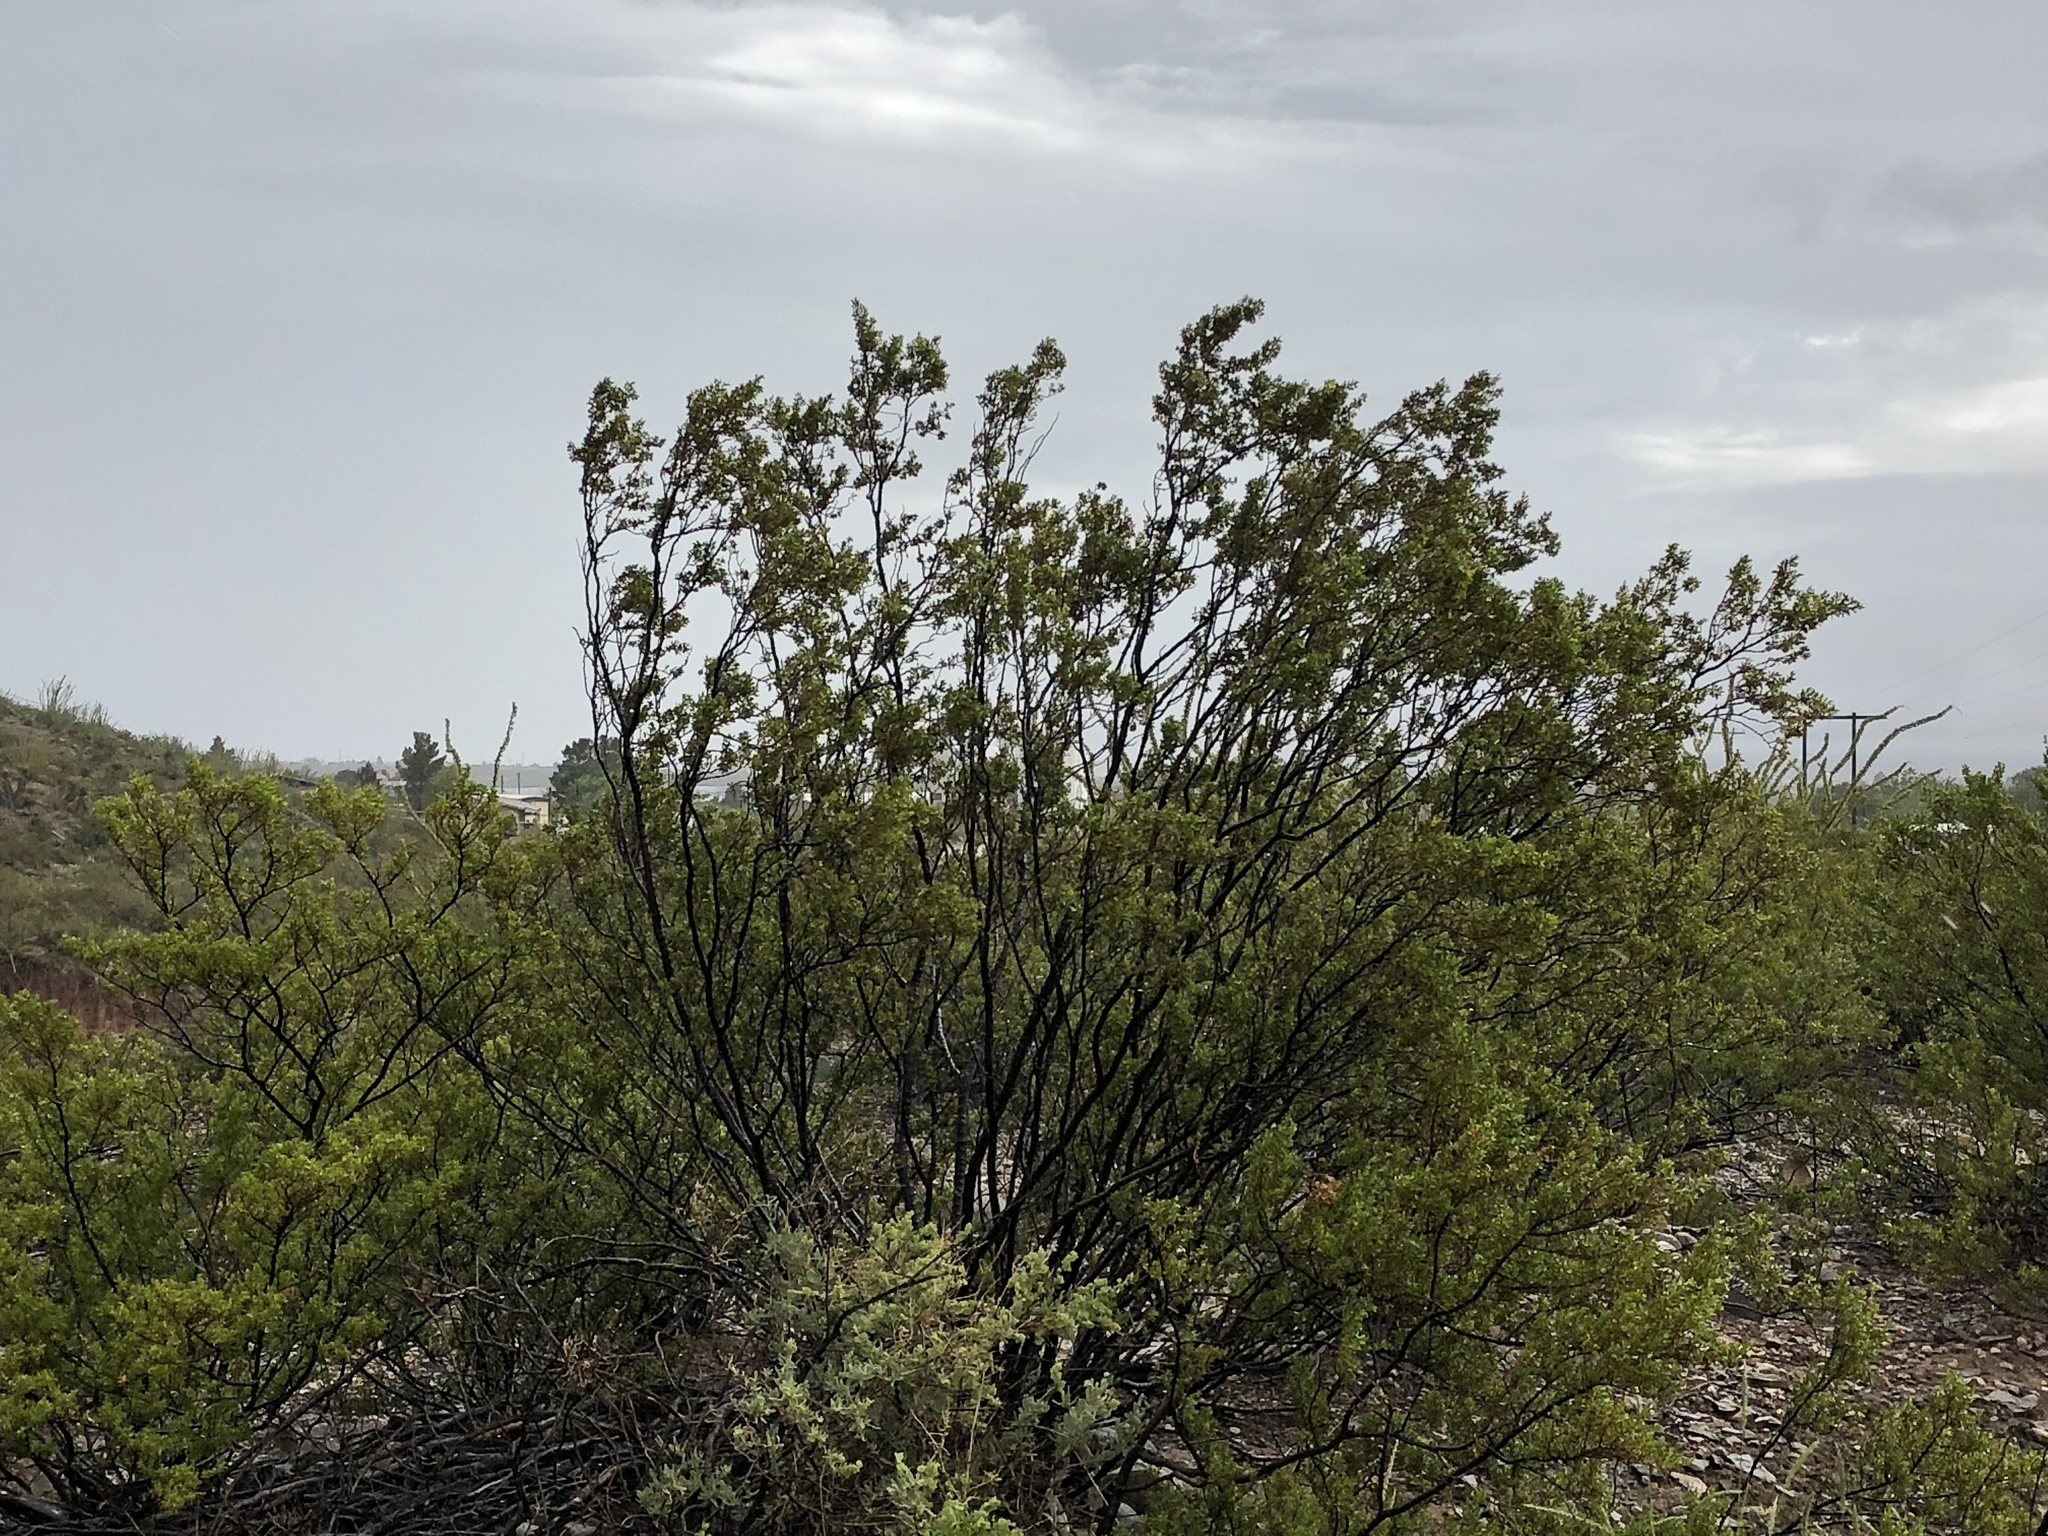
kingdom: Plantae
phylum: Tracheophyta
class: Magnoliopsida
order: Zygophyllales
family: Zygophyllaceae
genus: Larrea
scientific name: Larrea tridentata
